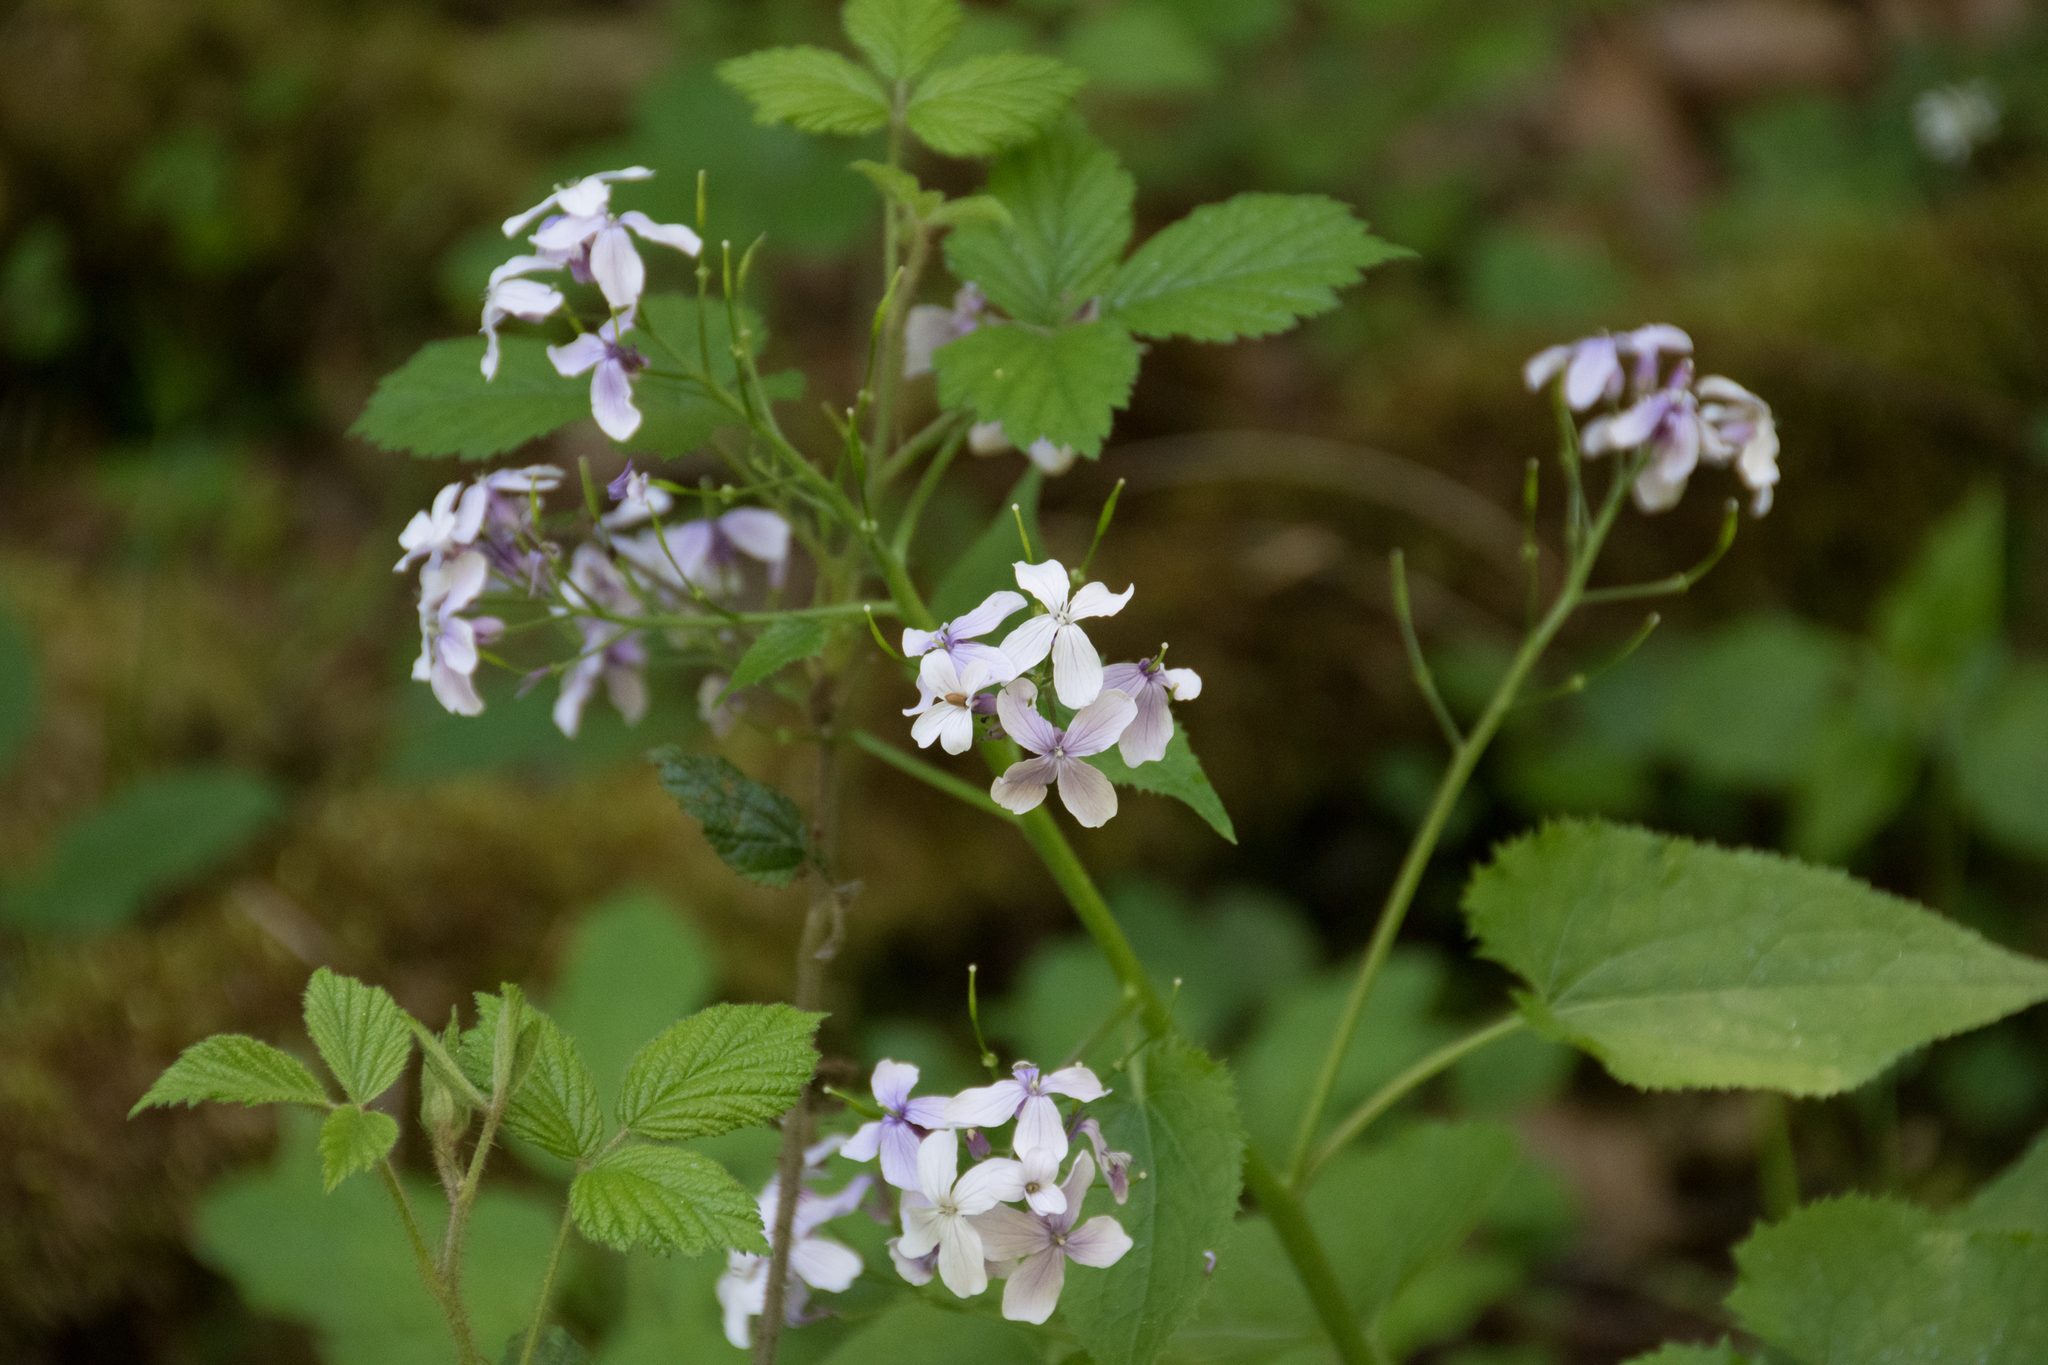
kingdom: Plantae
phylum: Tracheophyta
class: Magnoliopsida
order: Brassicales
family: Brassicaceae
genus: Lunaria
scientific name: Lunaria rediviva
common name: Perennial honesty
